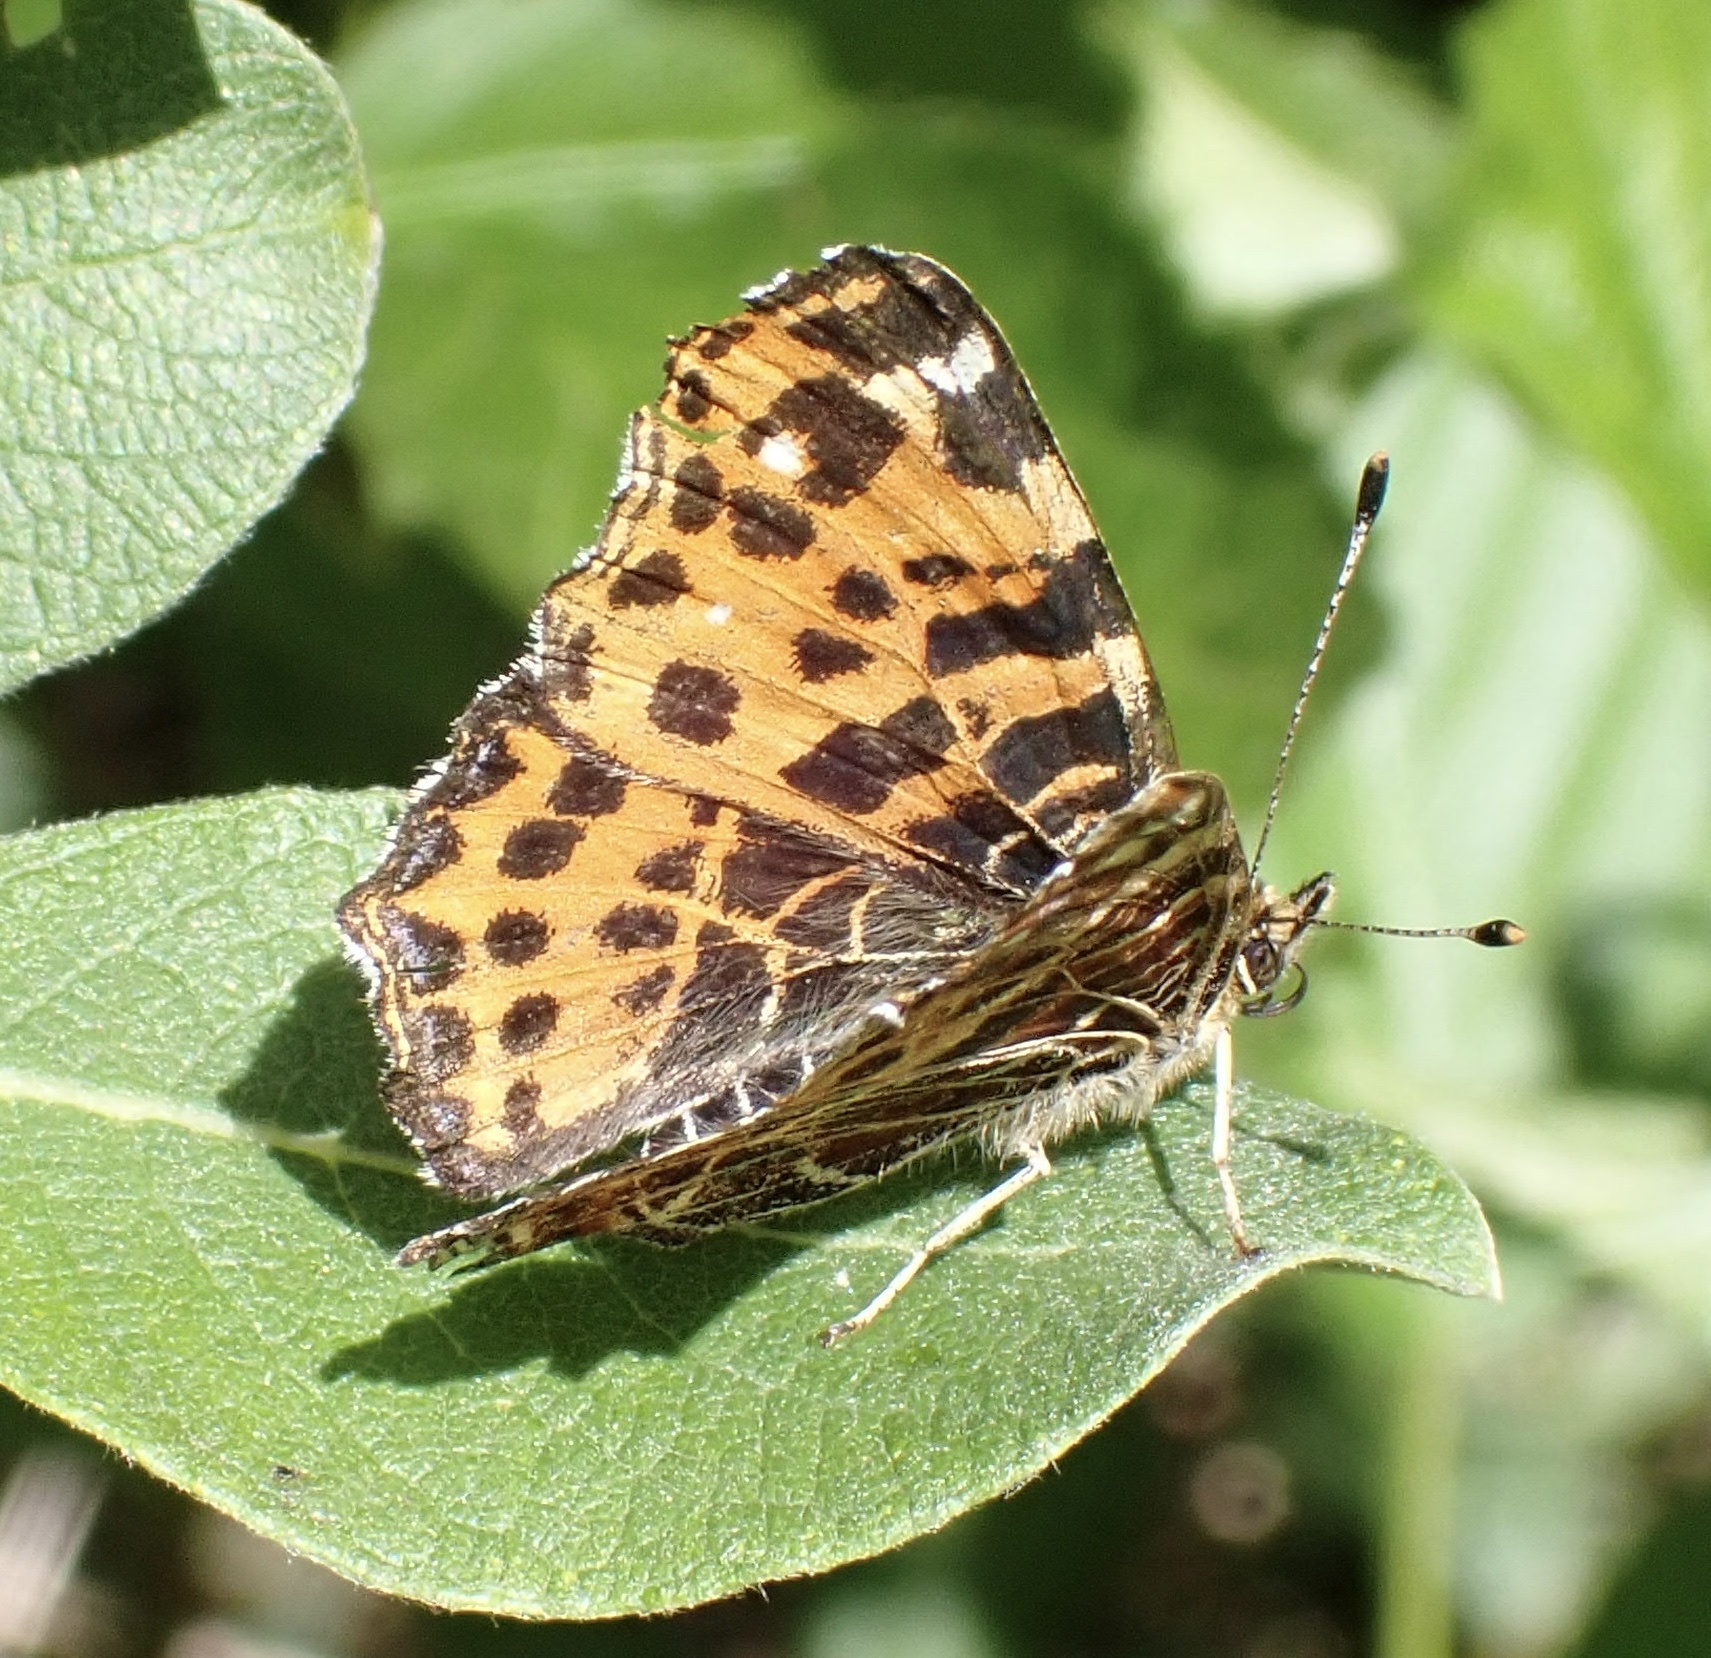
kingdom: Animalia
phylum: Arthropoda
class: Insecta
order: Lepidoptera
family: Nymphalidae
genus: Araschnia
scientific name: Araschnia levana
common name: Map butterfly
